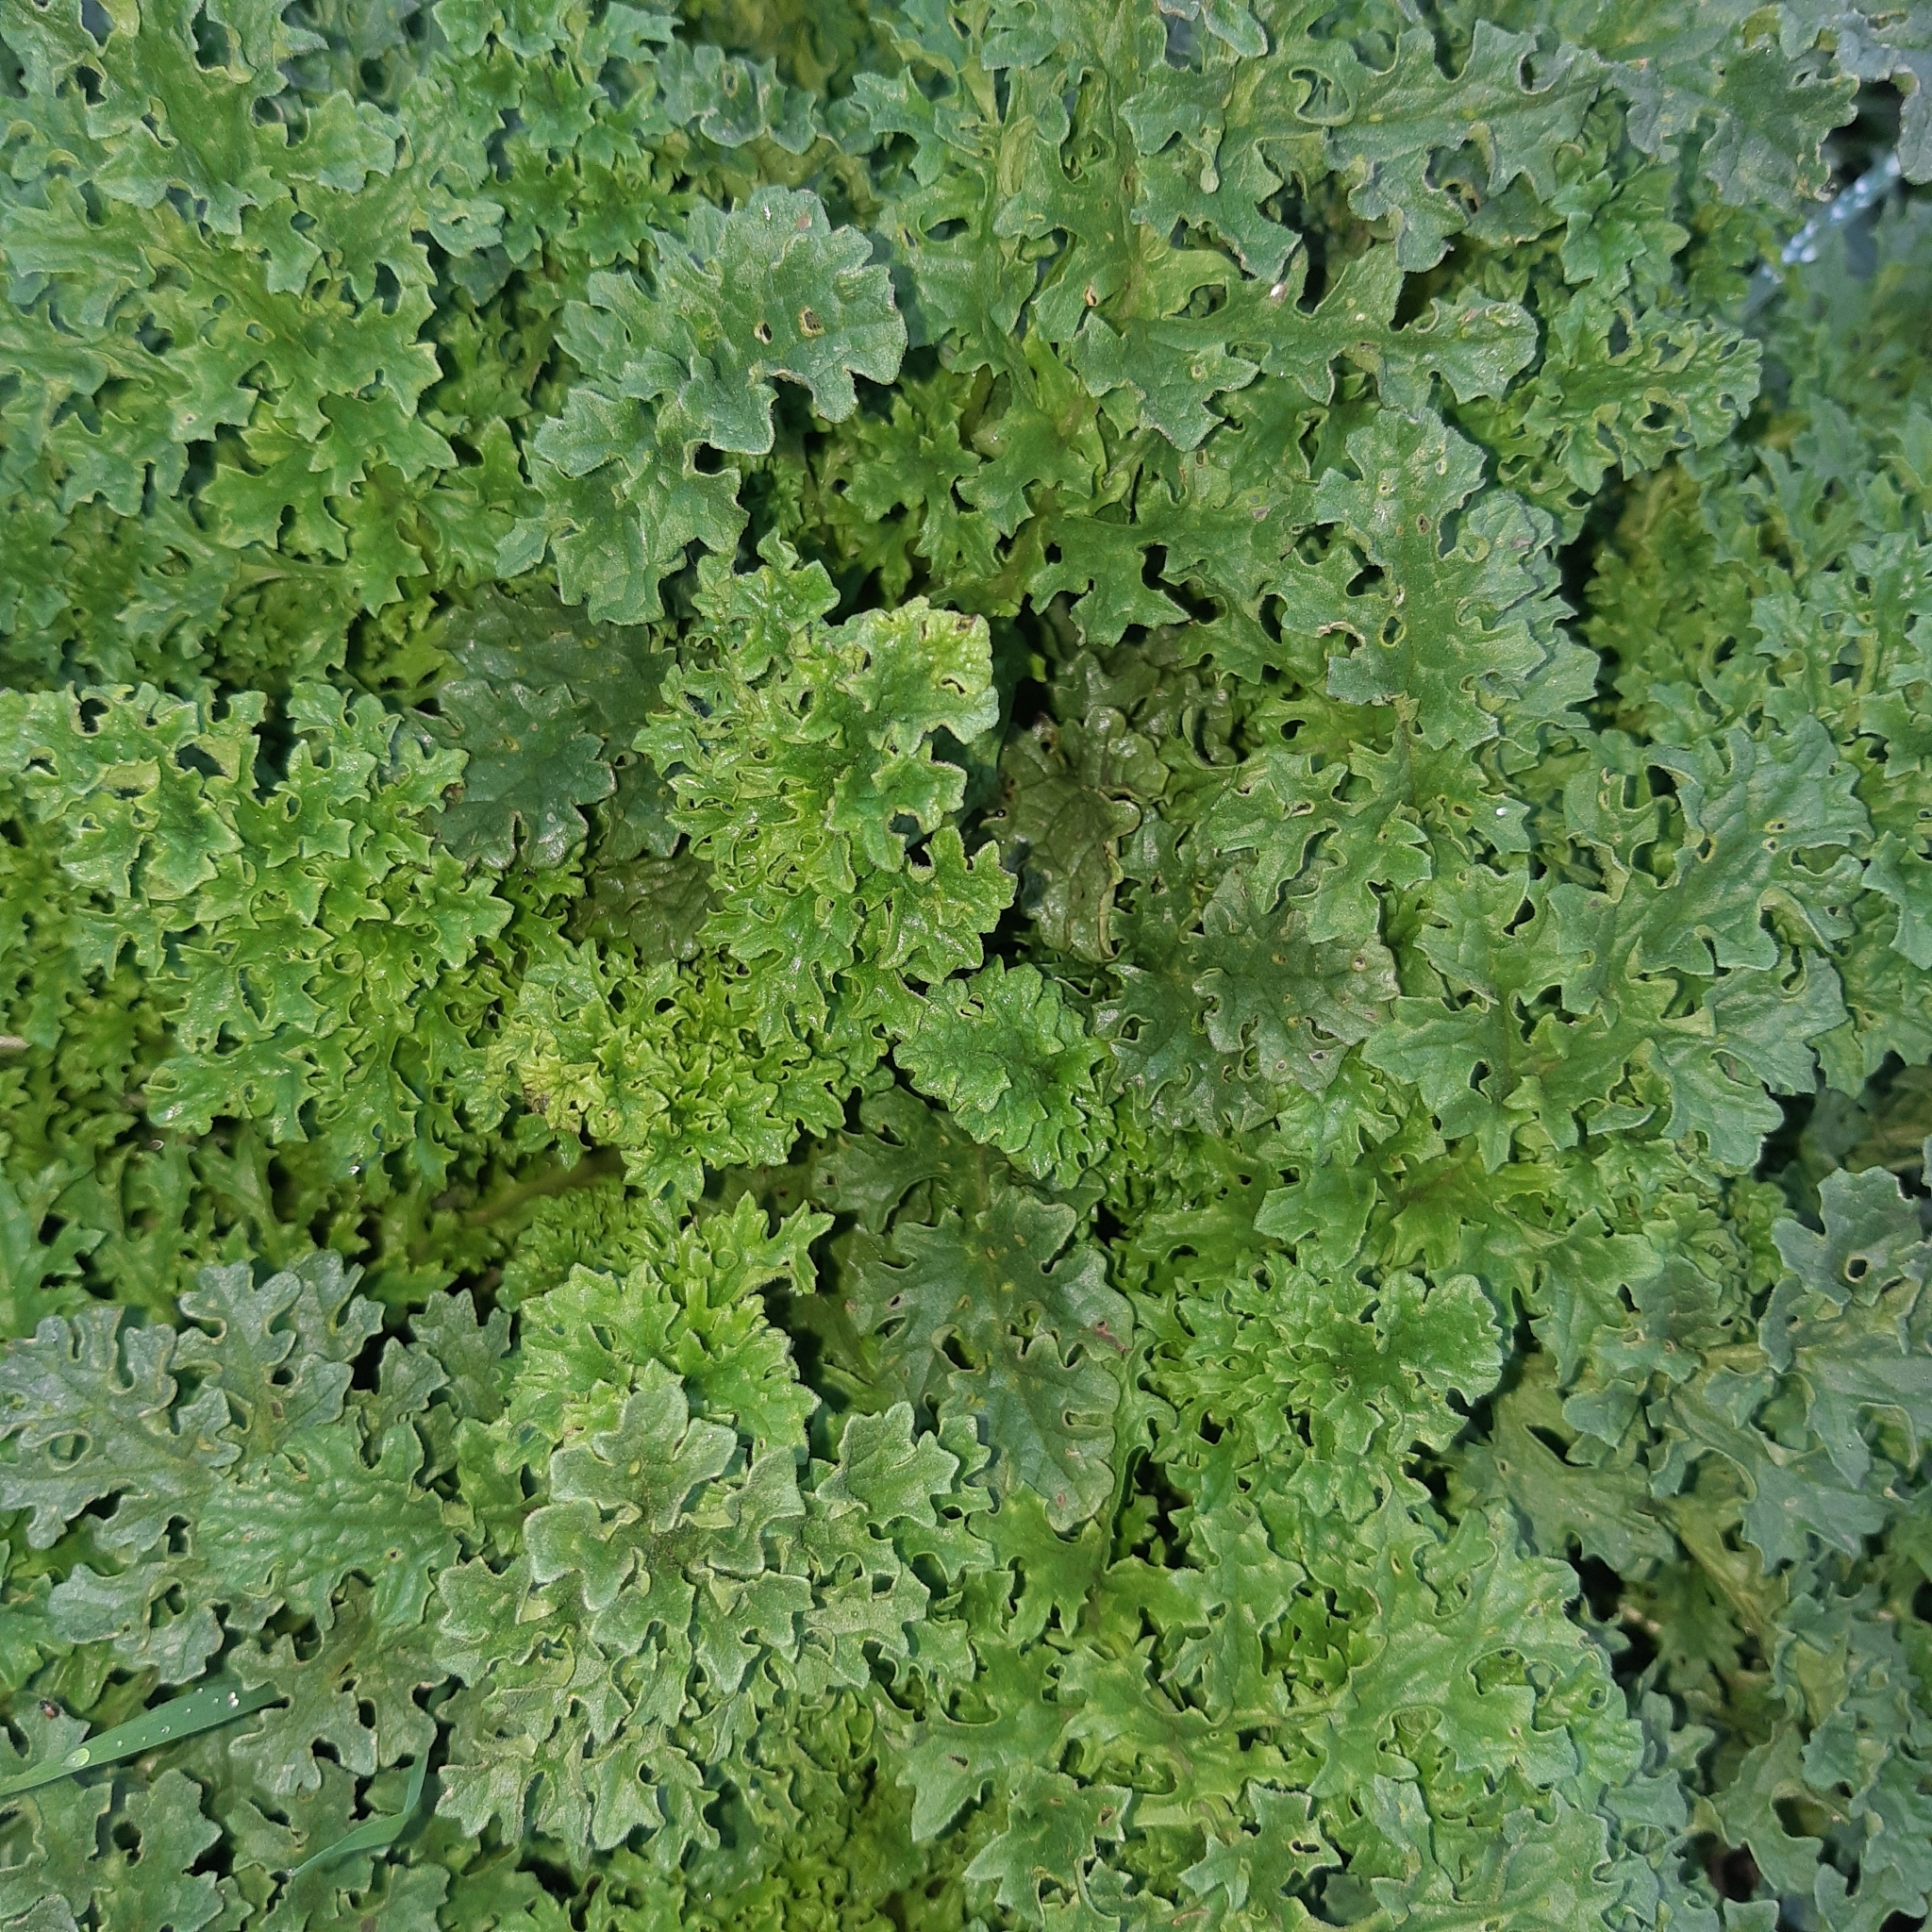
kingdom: Plantae
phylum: Tracheophyta
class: Magnoliopsida
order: Asterales
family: Asteraceae
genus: Jacobaea
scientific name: Jacobaea vulgaris
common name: Stinking willie
